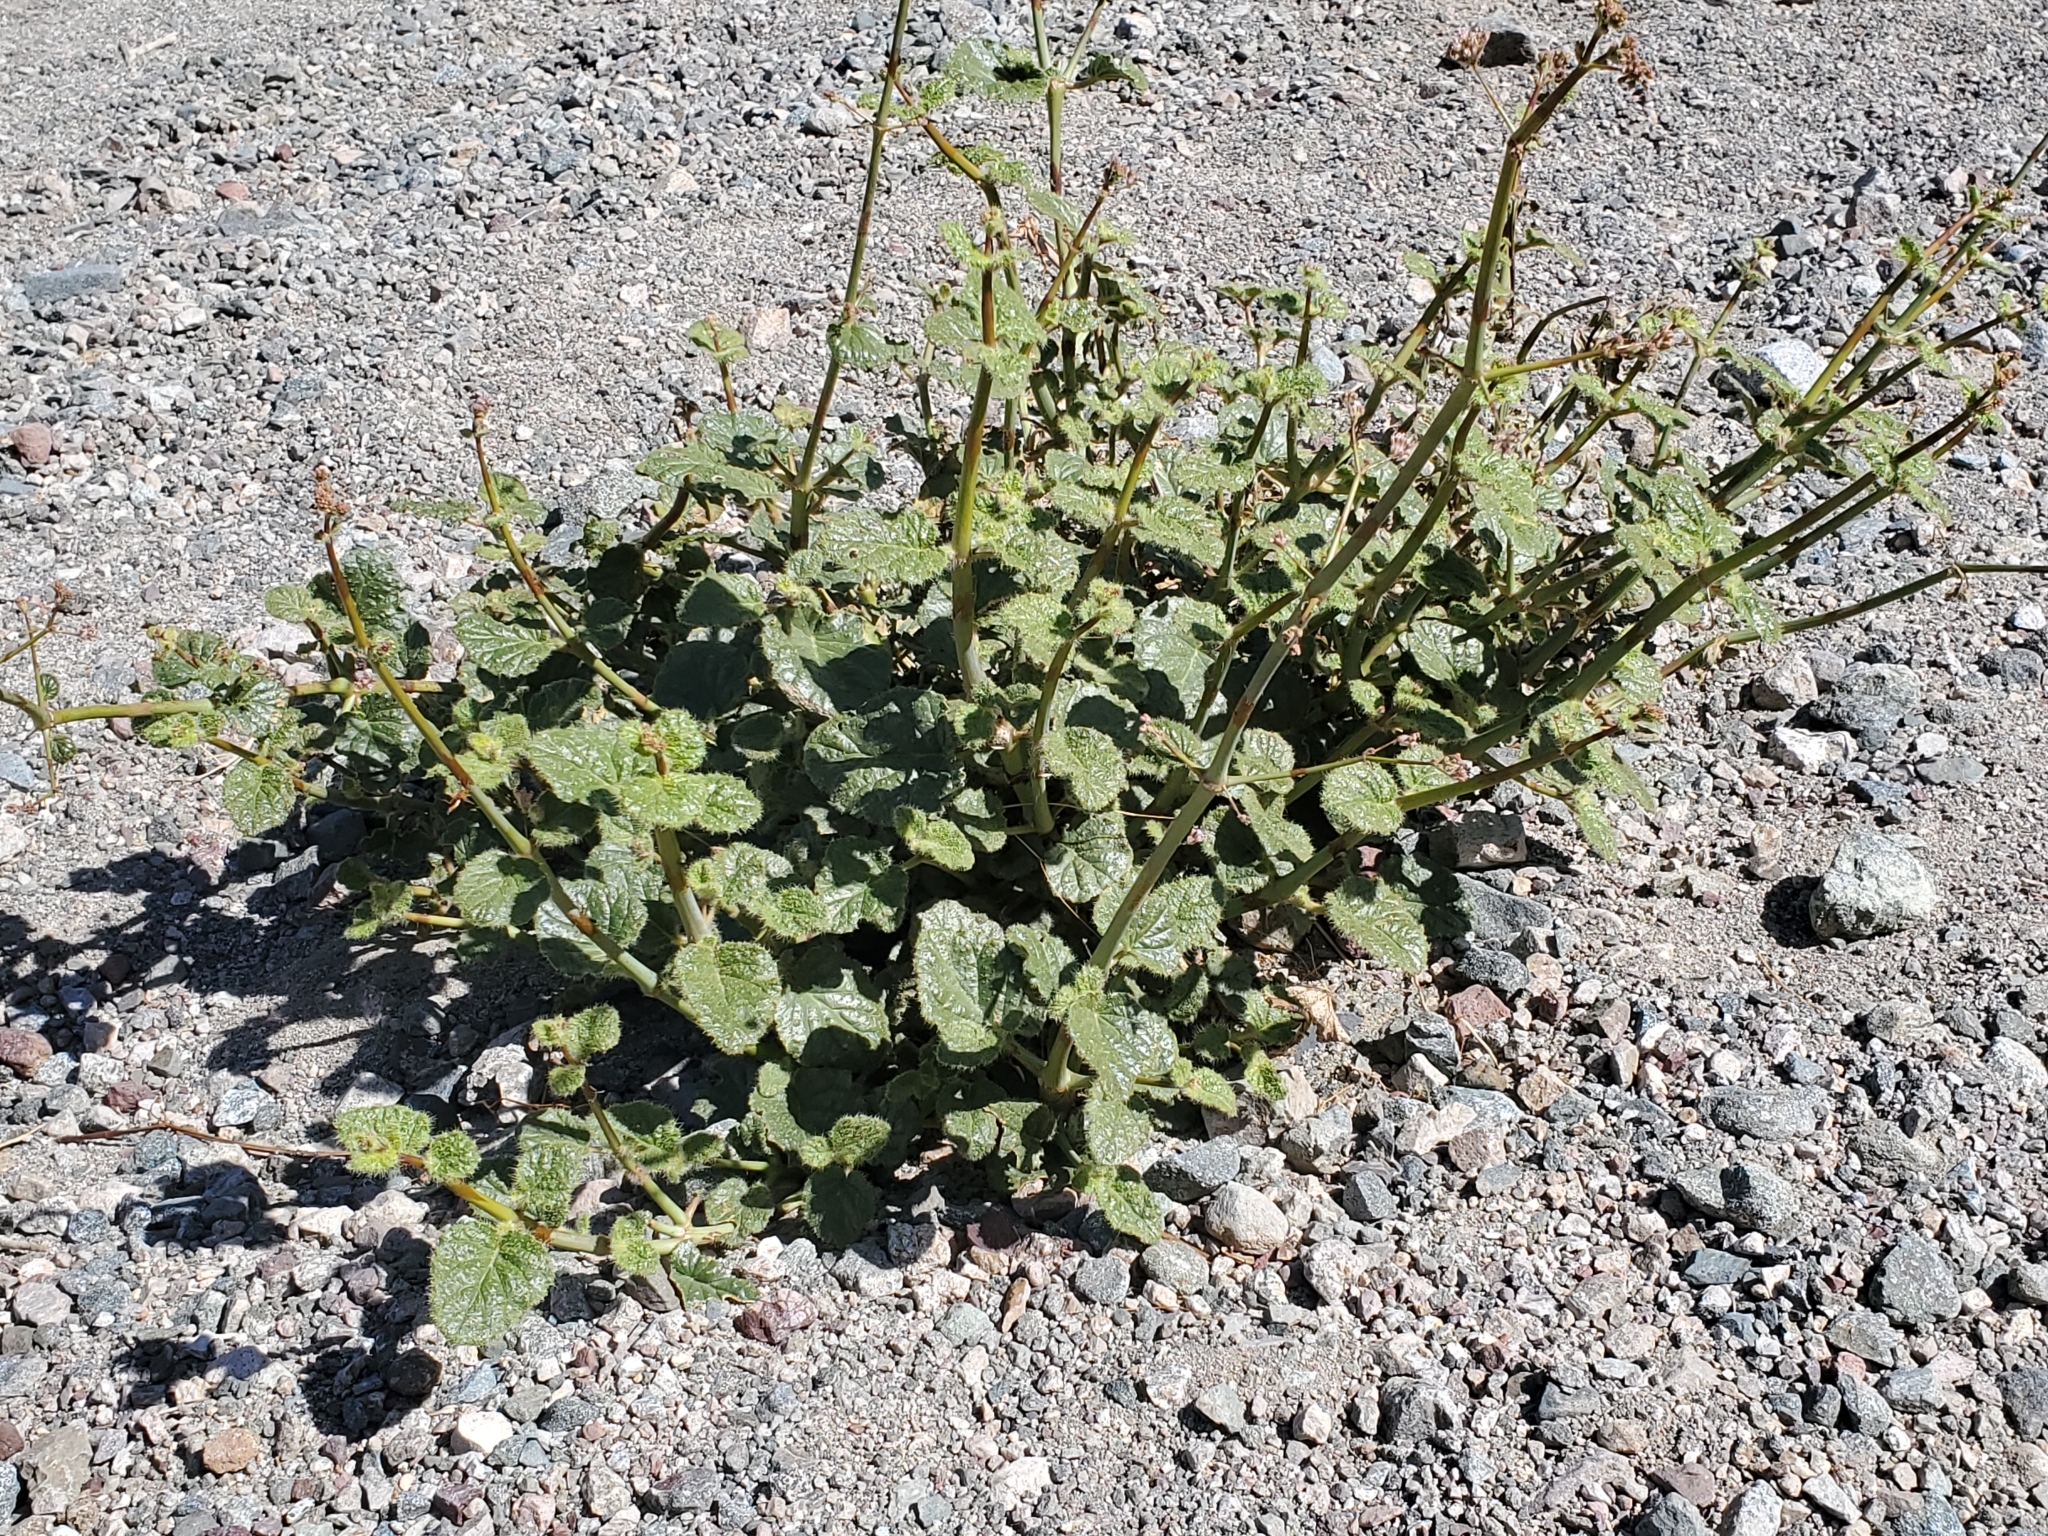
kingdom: Plantae
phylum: Tracheophyta
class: Magnoliopsida
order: Caryophyllales
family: Nyctaginaceae
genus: Anulocaulis
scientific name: Anulocaulis annulatus
